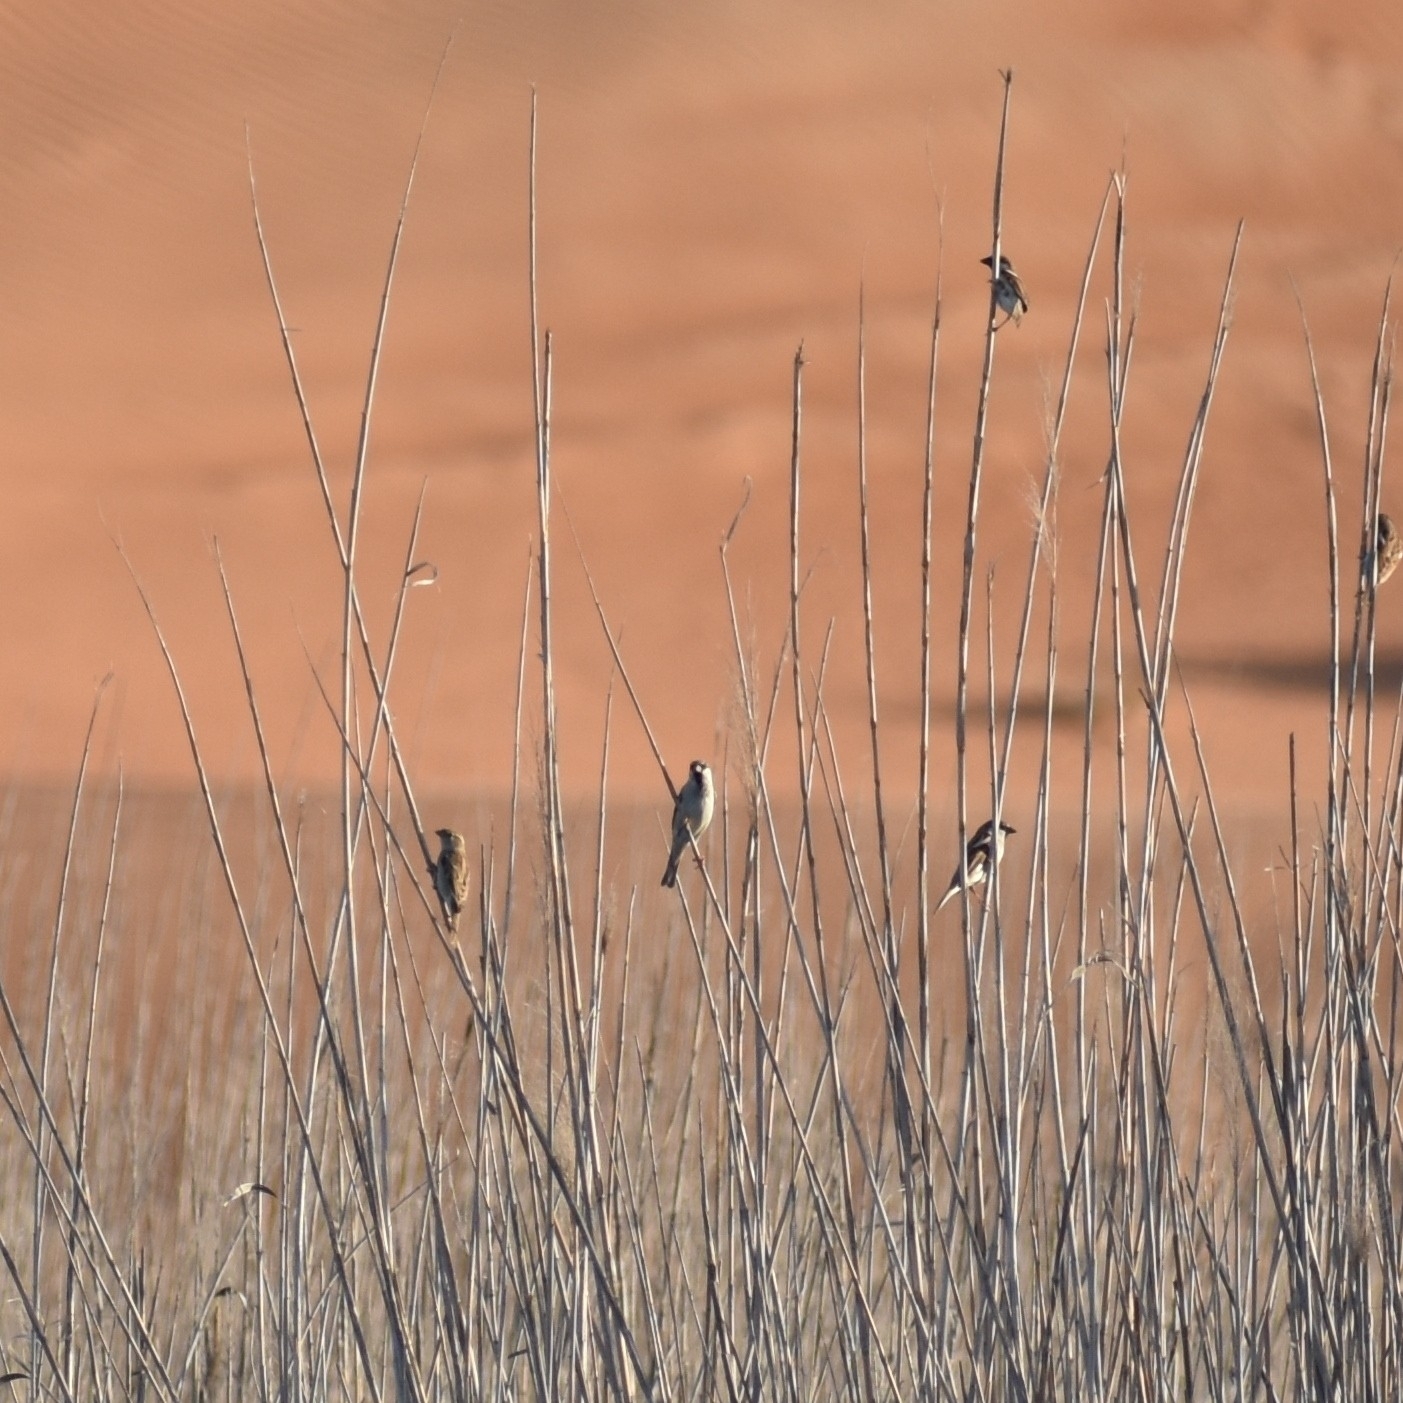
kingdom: Animalia
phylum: Chordata
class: Aves
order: Passeriformes
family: Passeridae
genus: Passer
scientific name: Passer domesticus
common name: House sparrow
